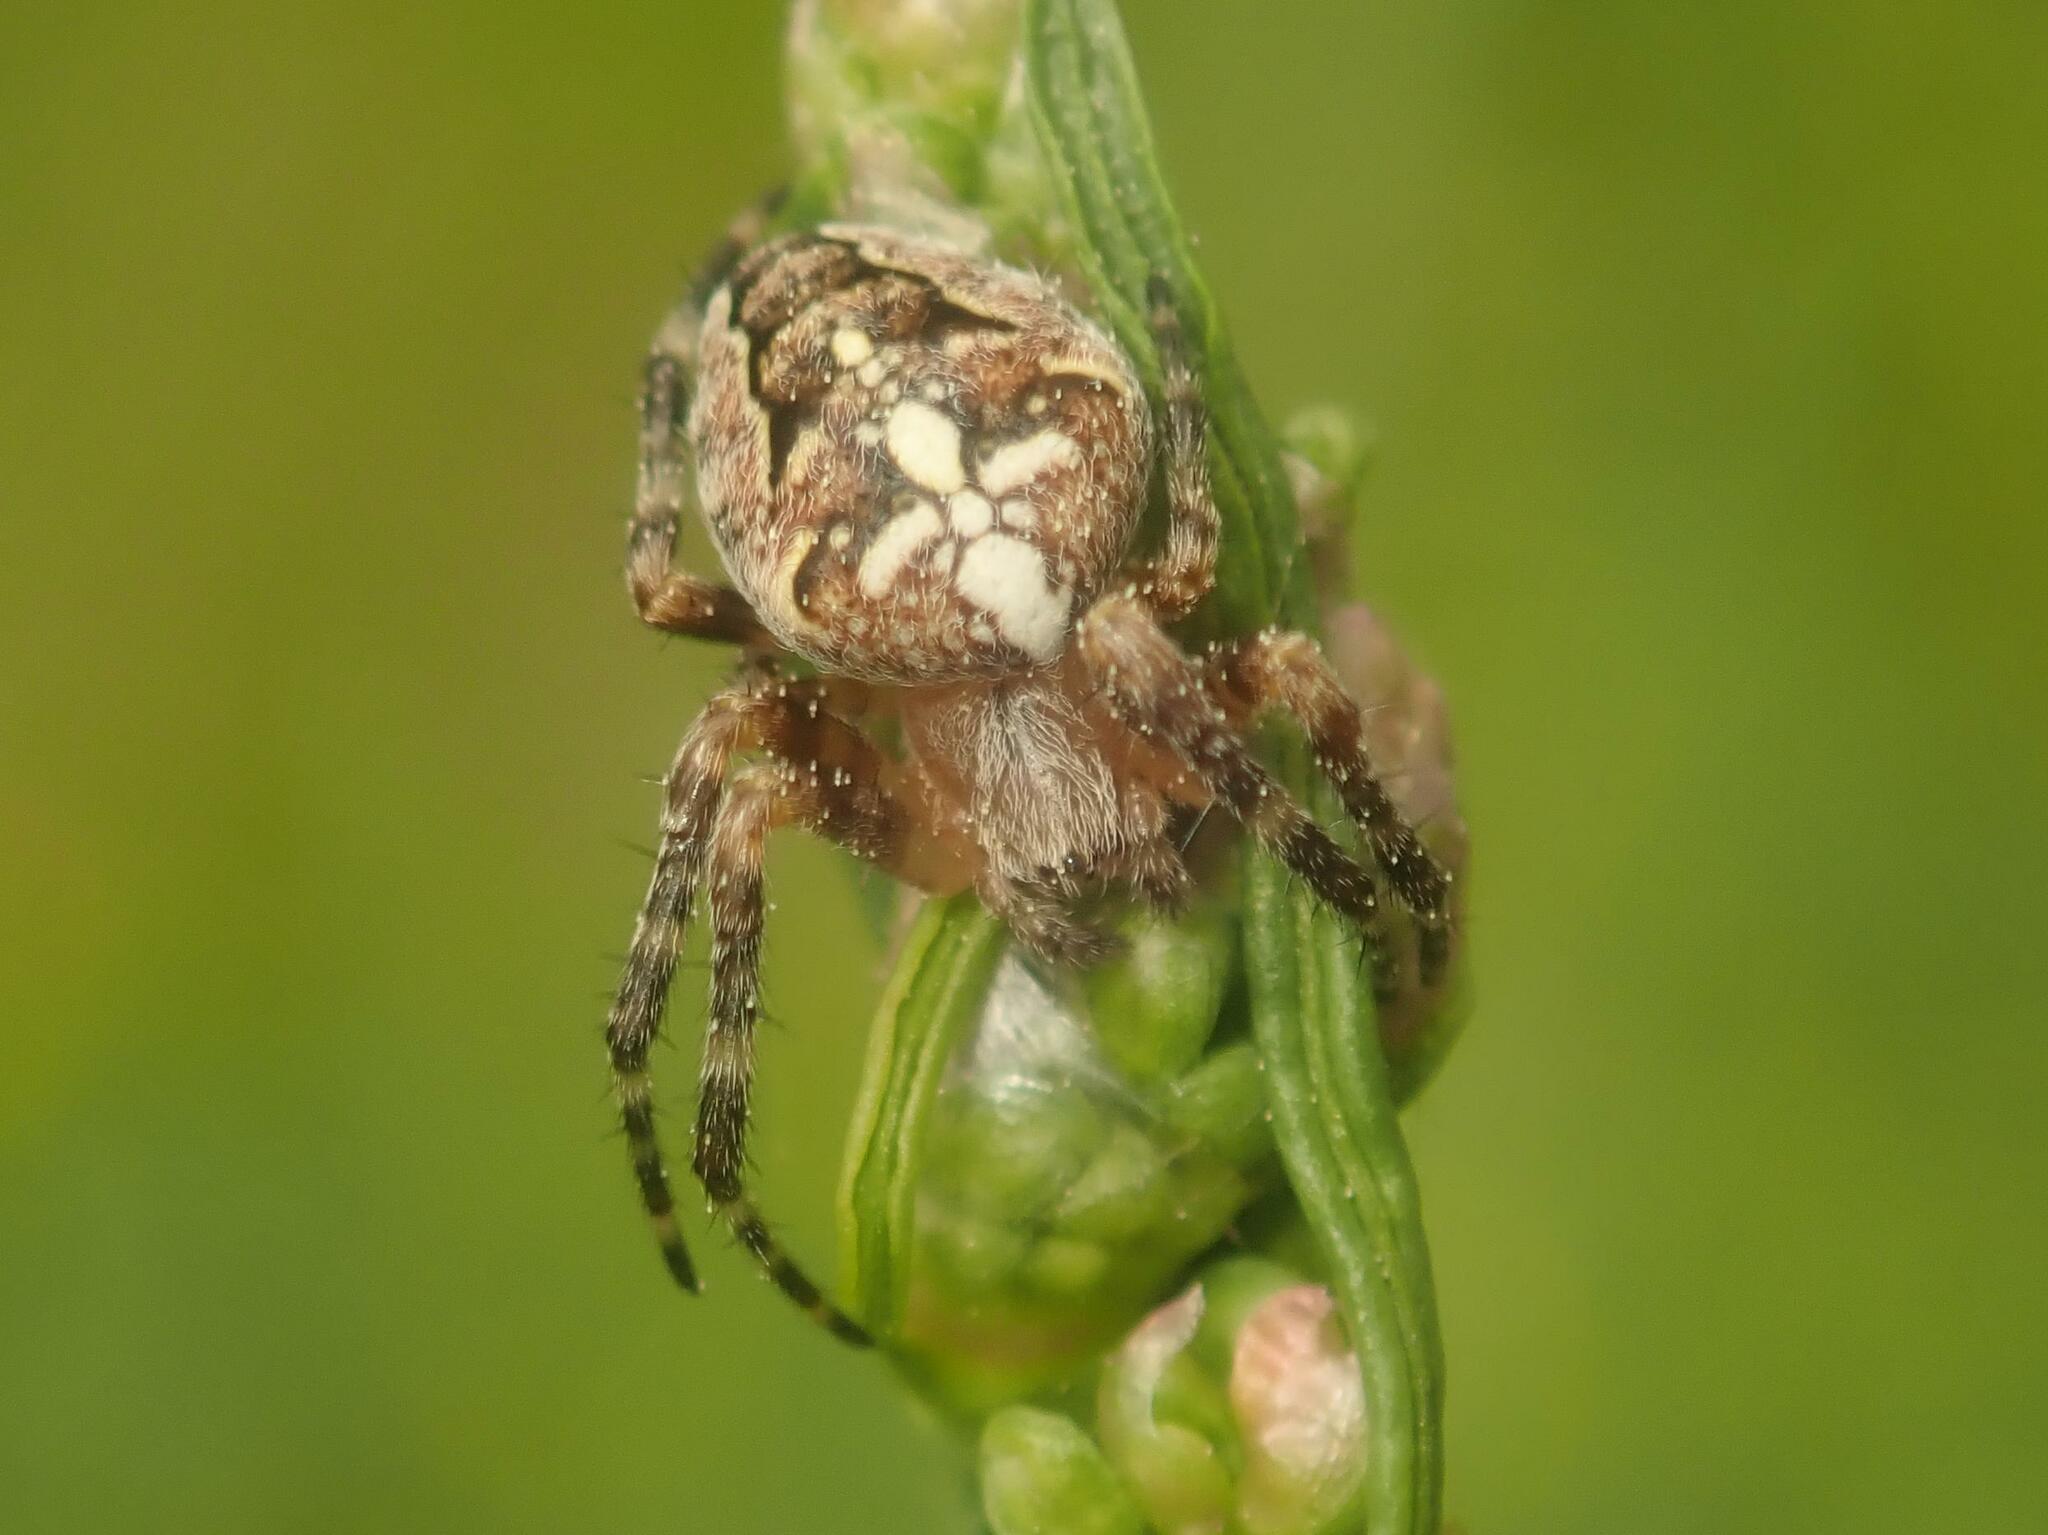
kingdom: Animalia
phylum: Arthropoda
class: Arachnida
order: Araneae
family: Araneidae
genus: Araneus
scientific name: Araneus diadematus
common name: Cross orbweaver
